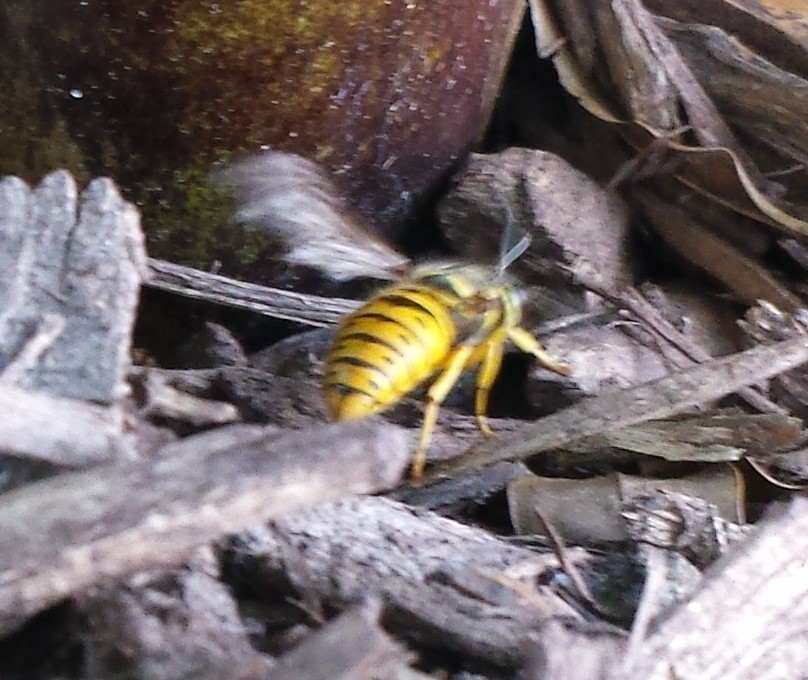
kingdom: Animalia
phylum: Arthropoda
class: Insecta
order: Hymenoptera
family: Vespidae
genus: Vespula
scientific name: Vespula maculifrons
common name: Eastern yellowjacket
